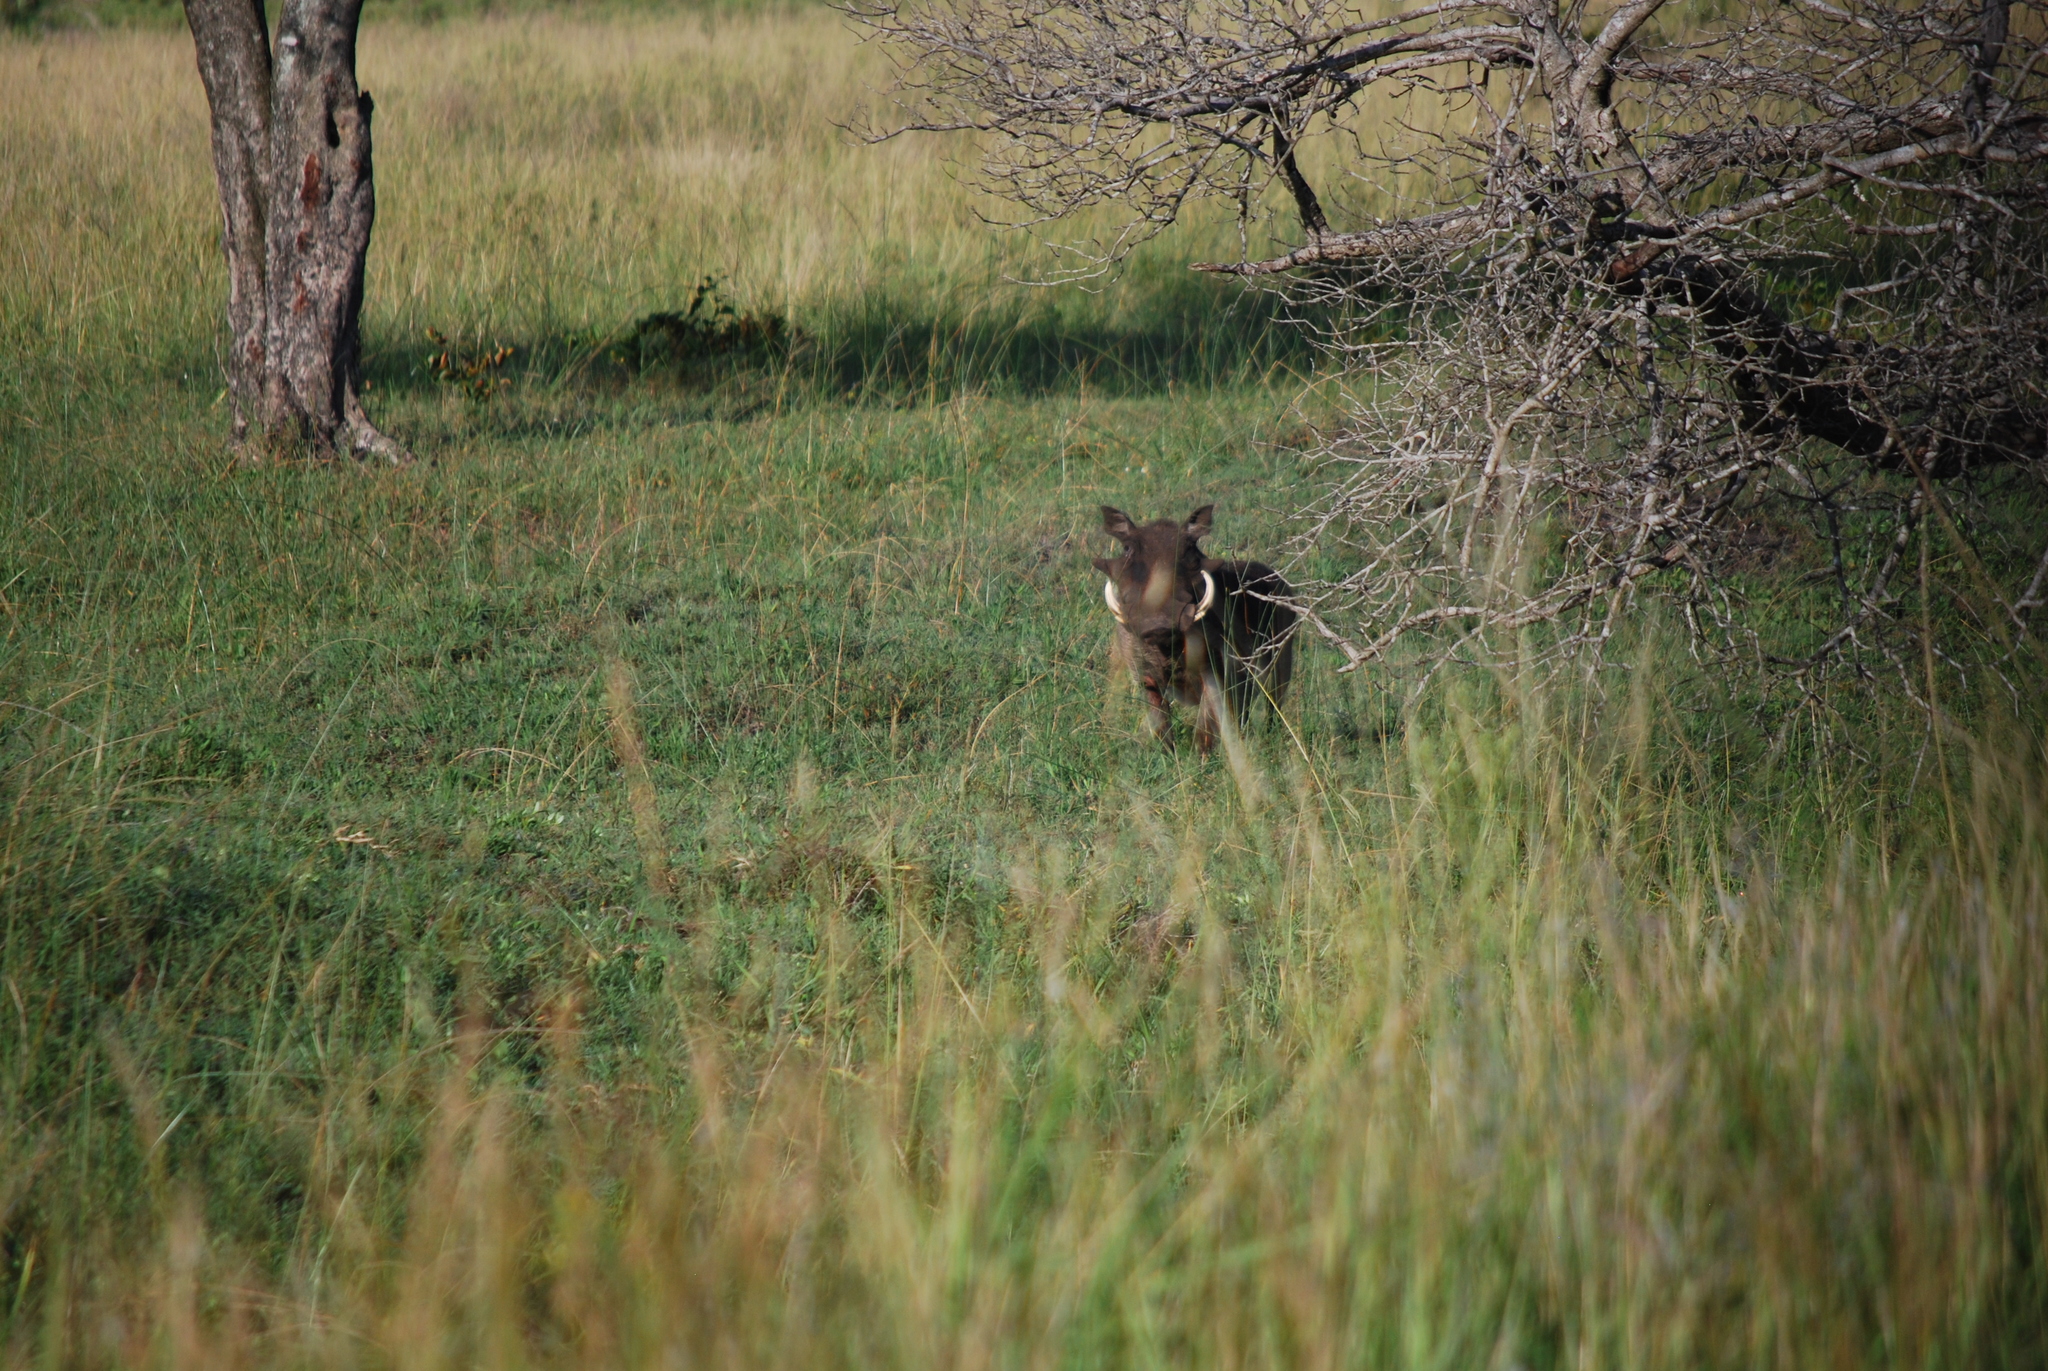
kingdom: Animalia
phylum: Chordata
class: Mammalia
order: Artiodactyla
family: Suidae
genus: Phacochoerus
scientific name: Phacochoerus africanus
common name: Common warthog
